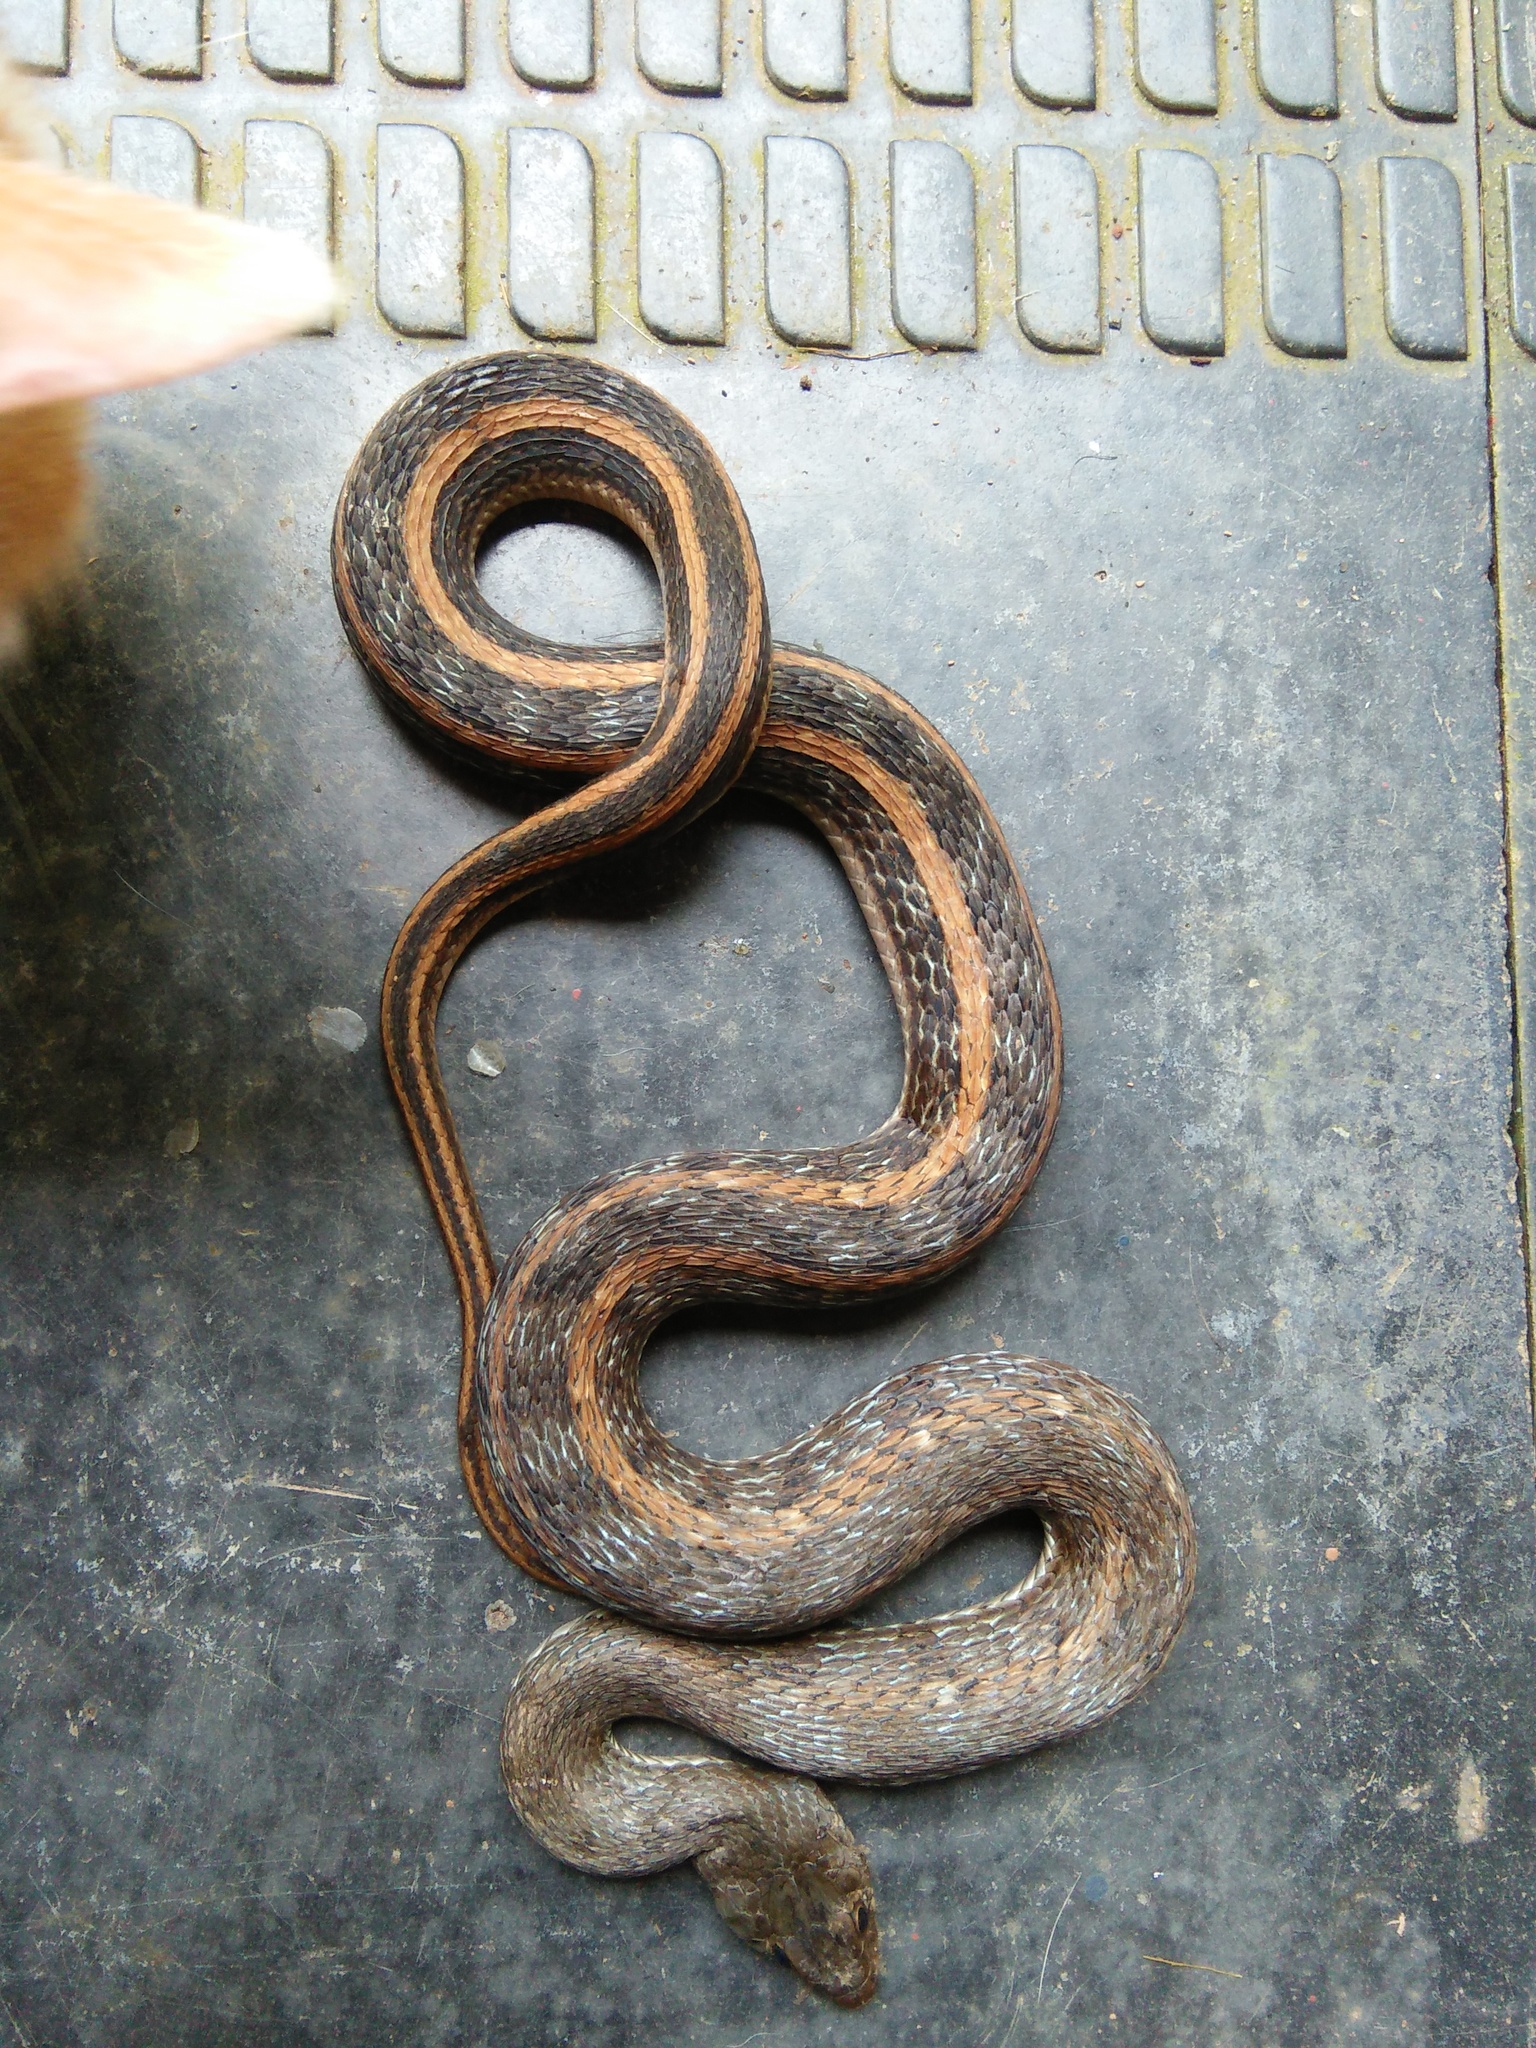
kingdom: Animalia
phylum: Chordata
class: Squamata
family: Colubridae
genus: Amphiesma
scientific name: Amphiesma stolatum
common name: Buff striped keelback
